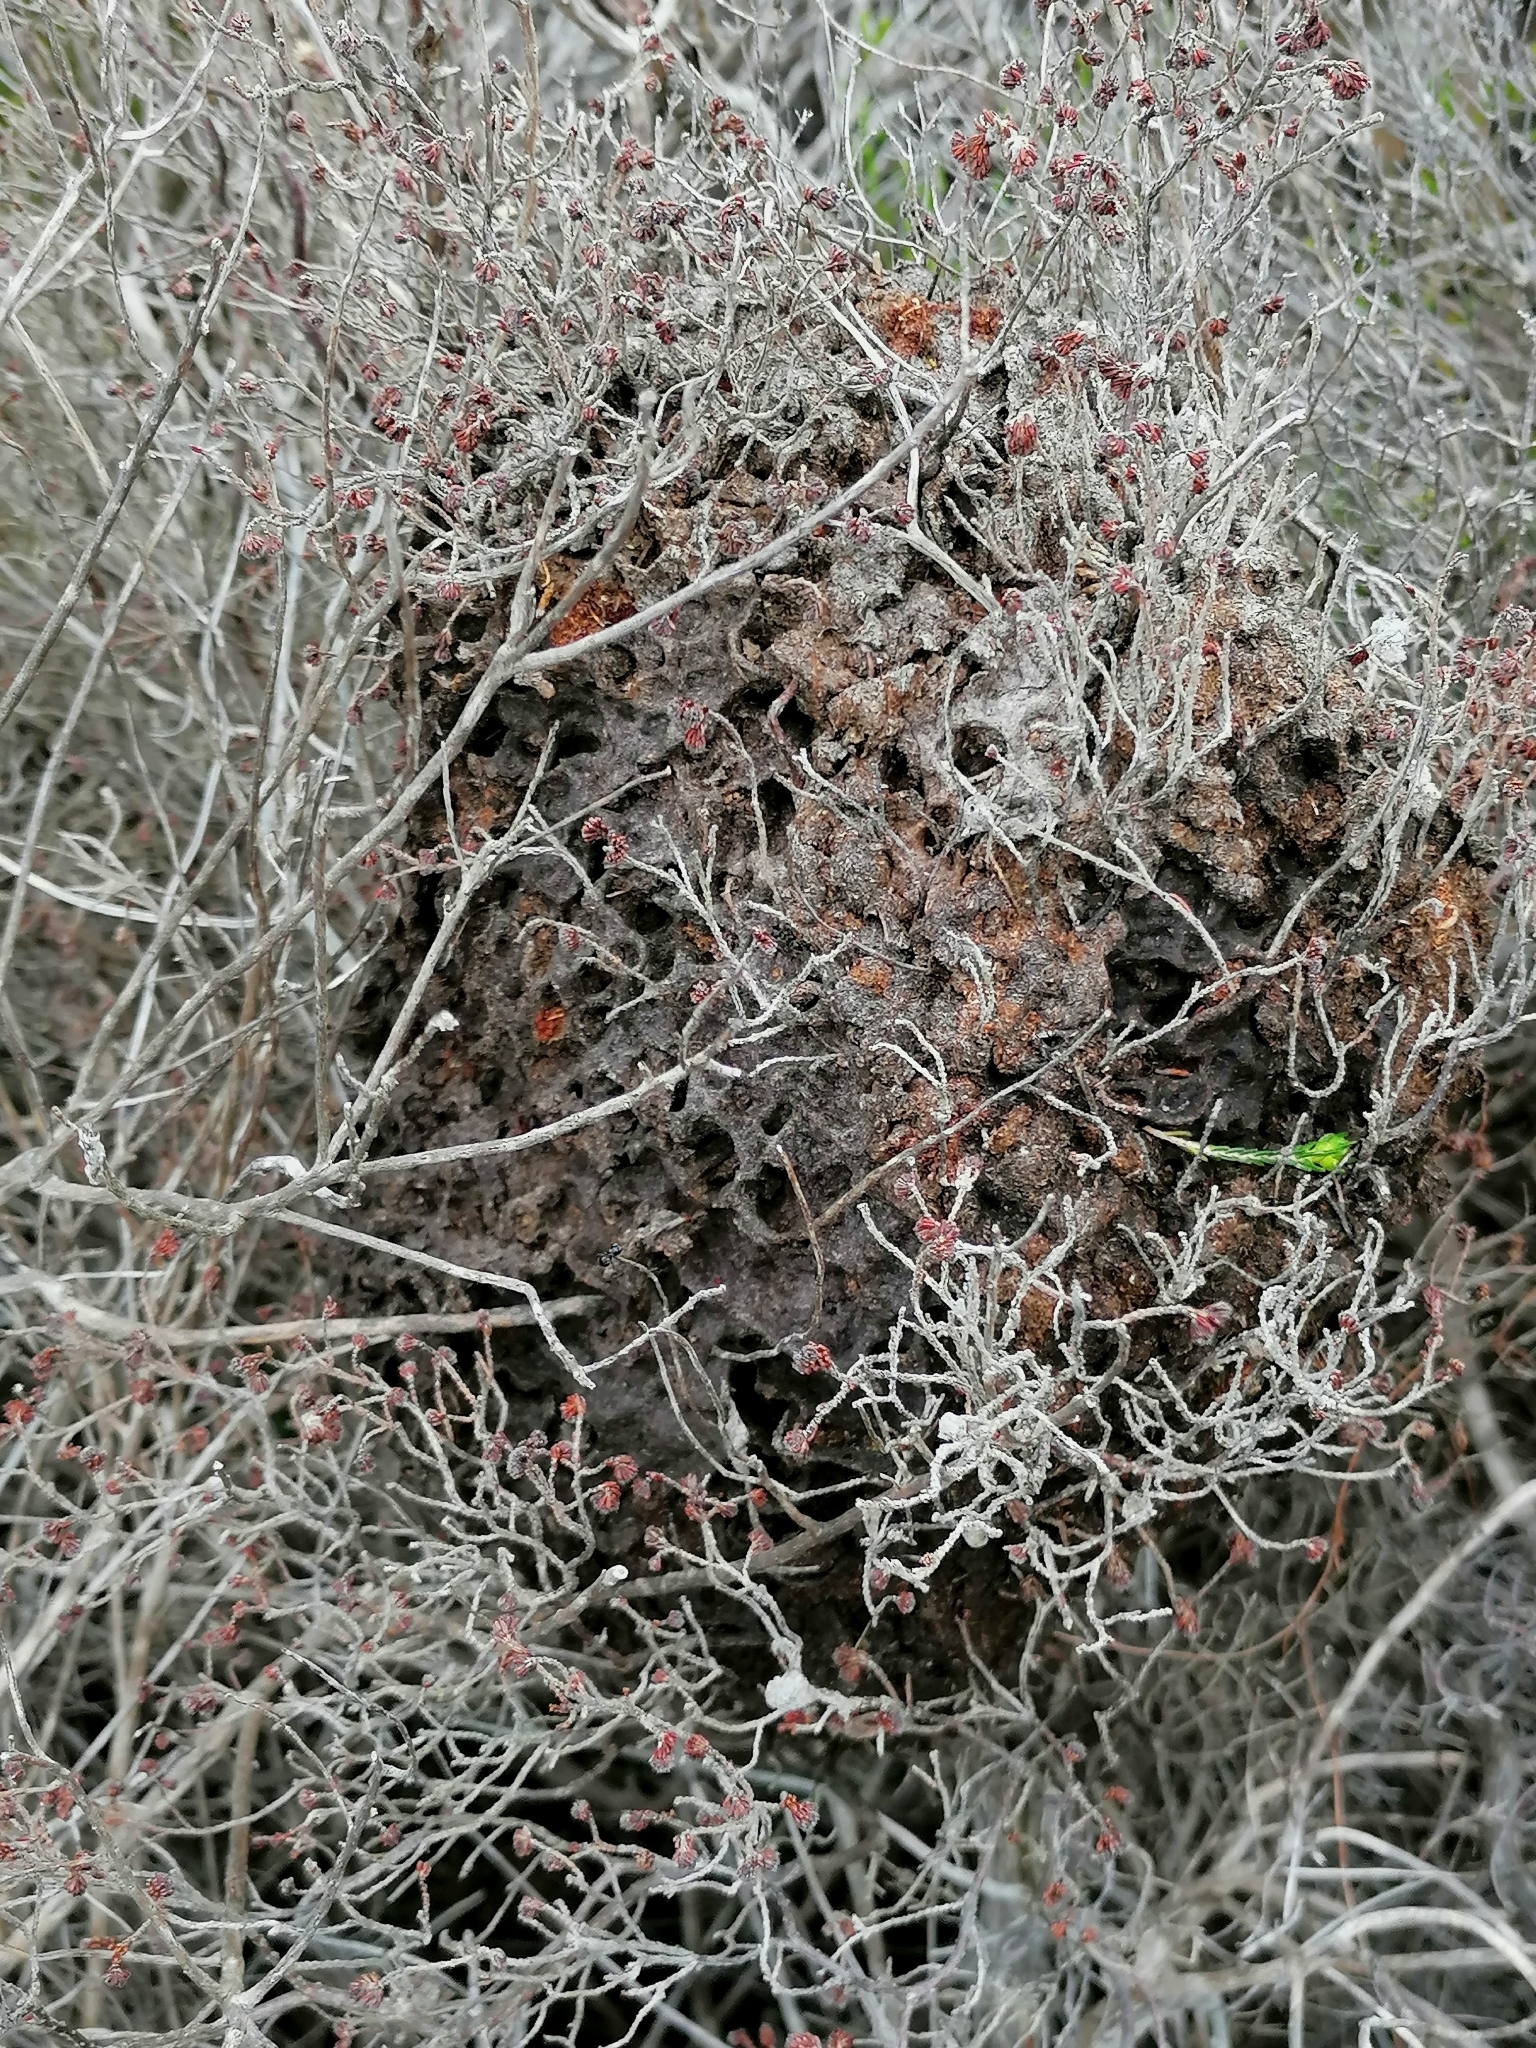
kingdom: Animalia
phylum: Arthropoda
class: Insecta
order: Hymenoptera
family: Formicidae
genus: Crematogaster
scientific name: Crematogaster peringueyi
